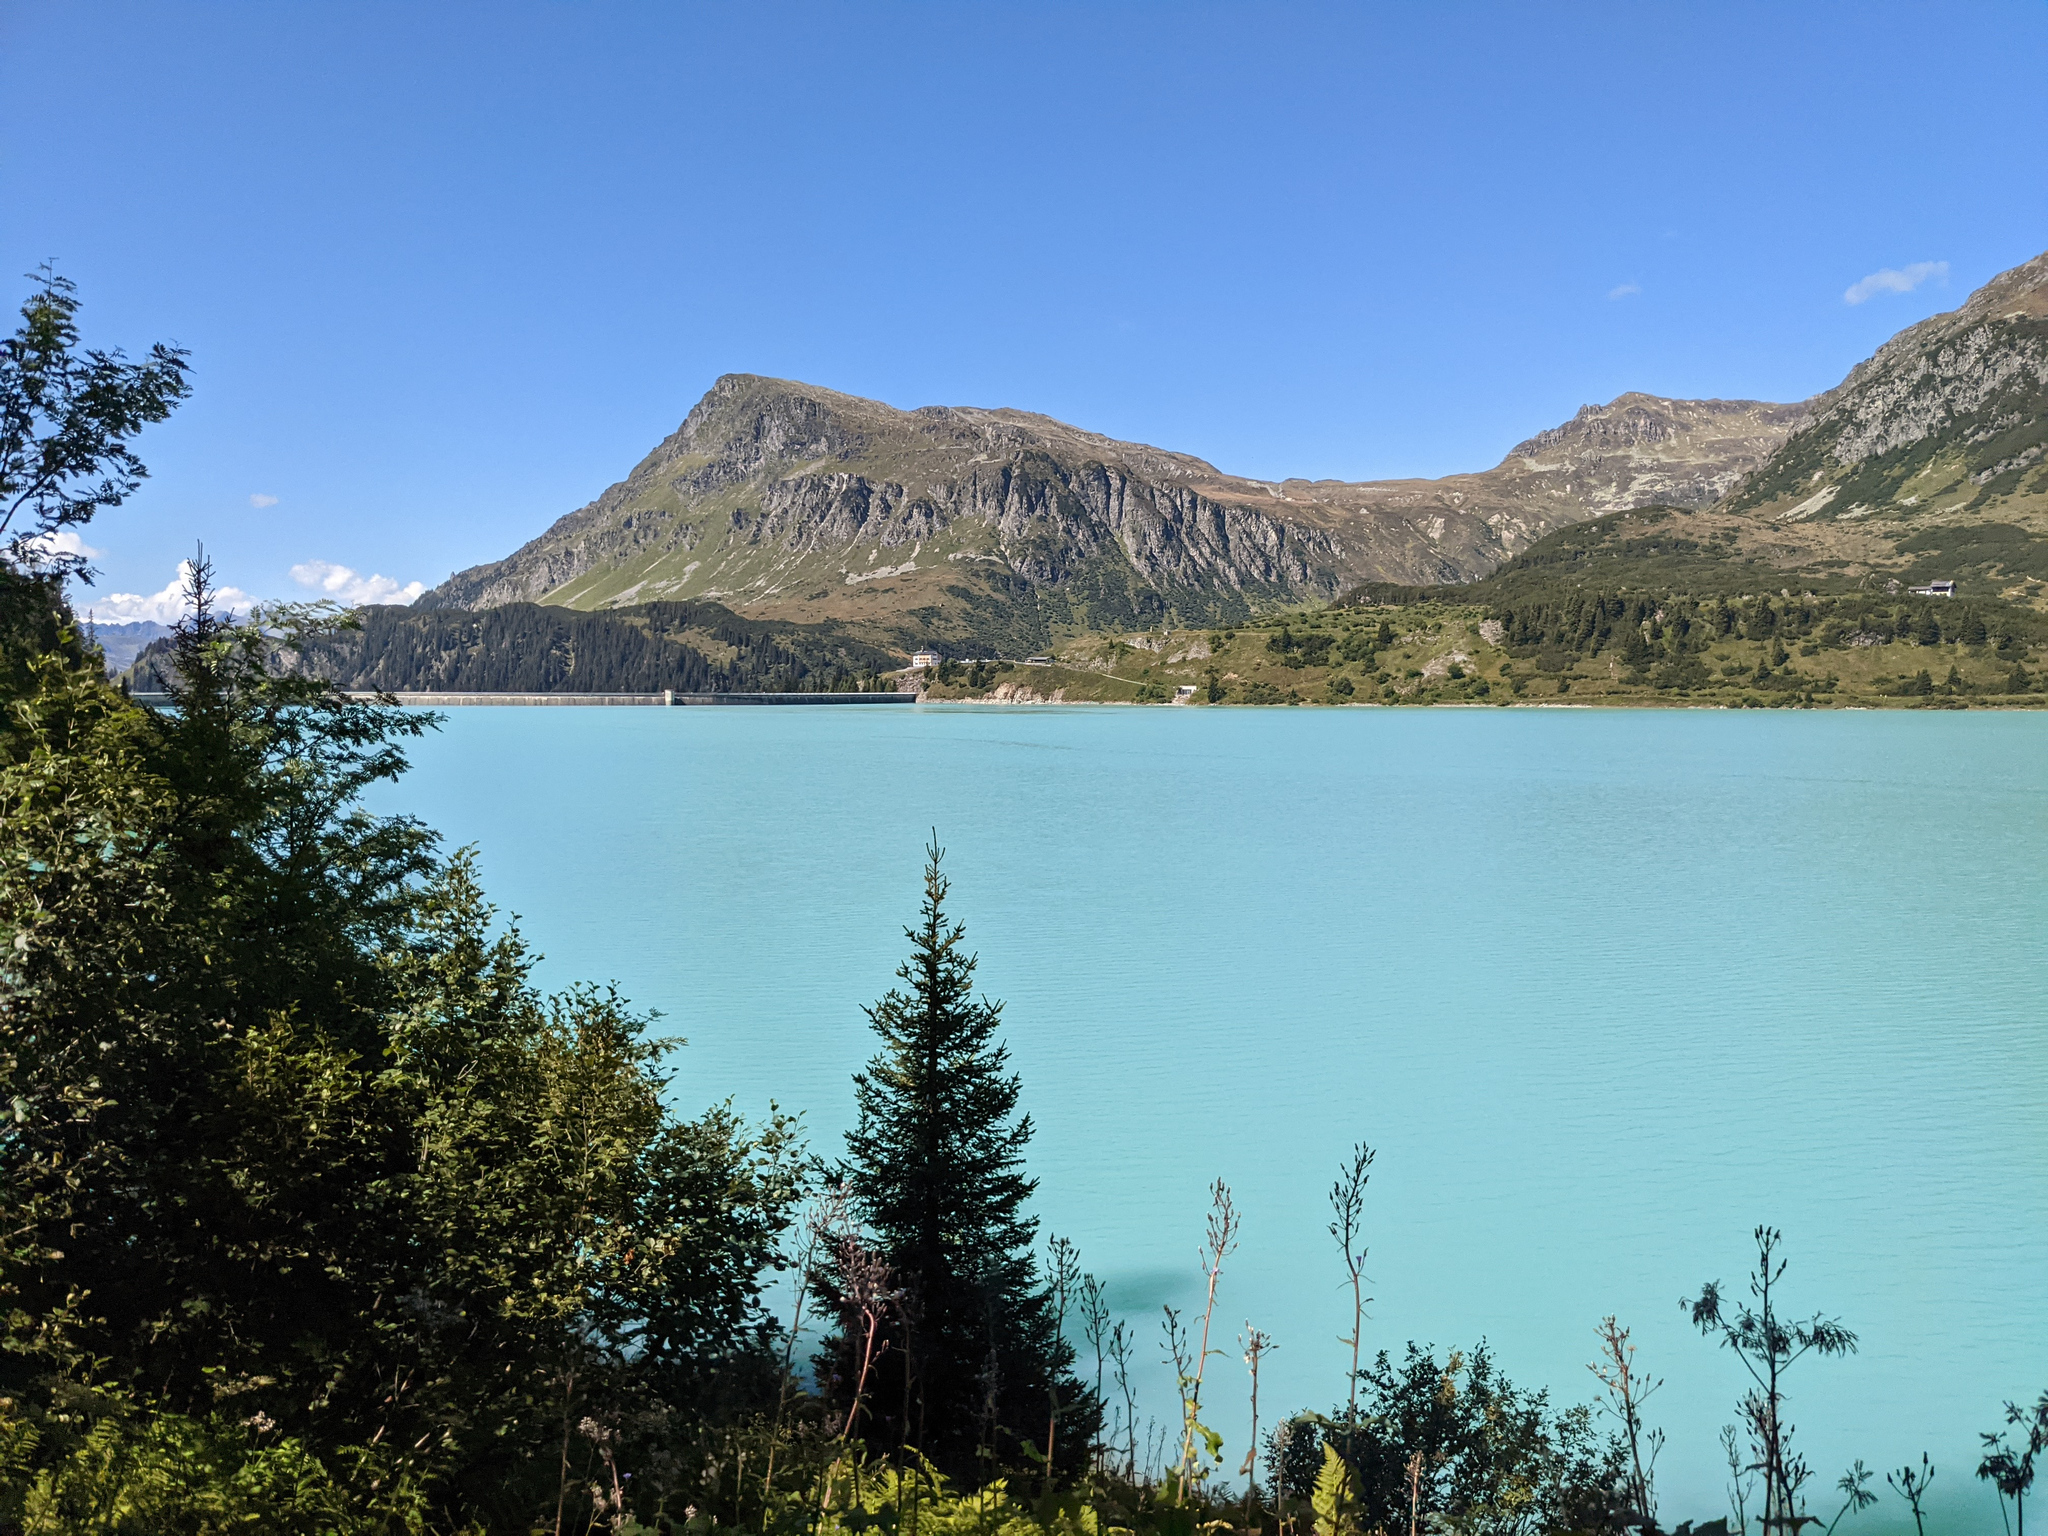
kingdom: Plantae
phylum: Tracheophyta
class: Pinopsida
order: Pinales
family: Pinaceae
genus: Picea
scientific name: Picea abies
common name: Norway spruce
